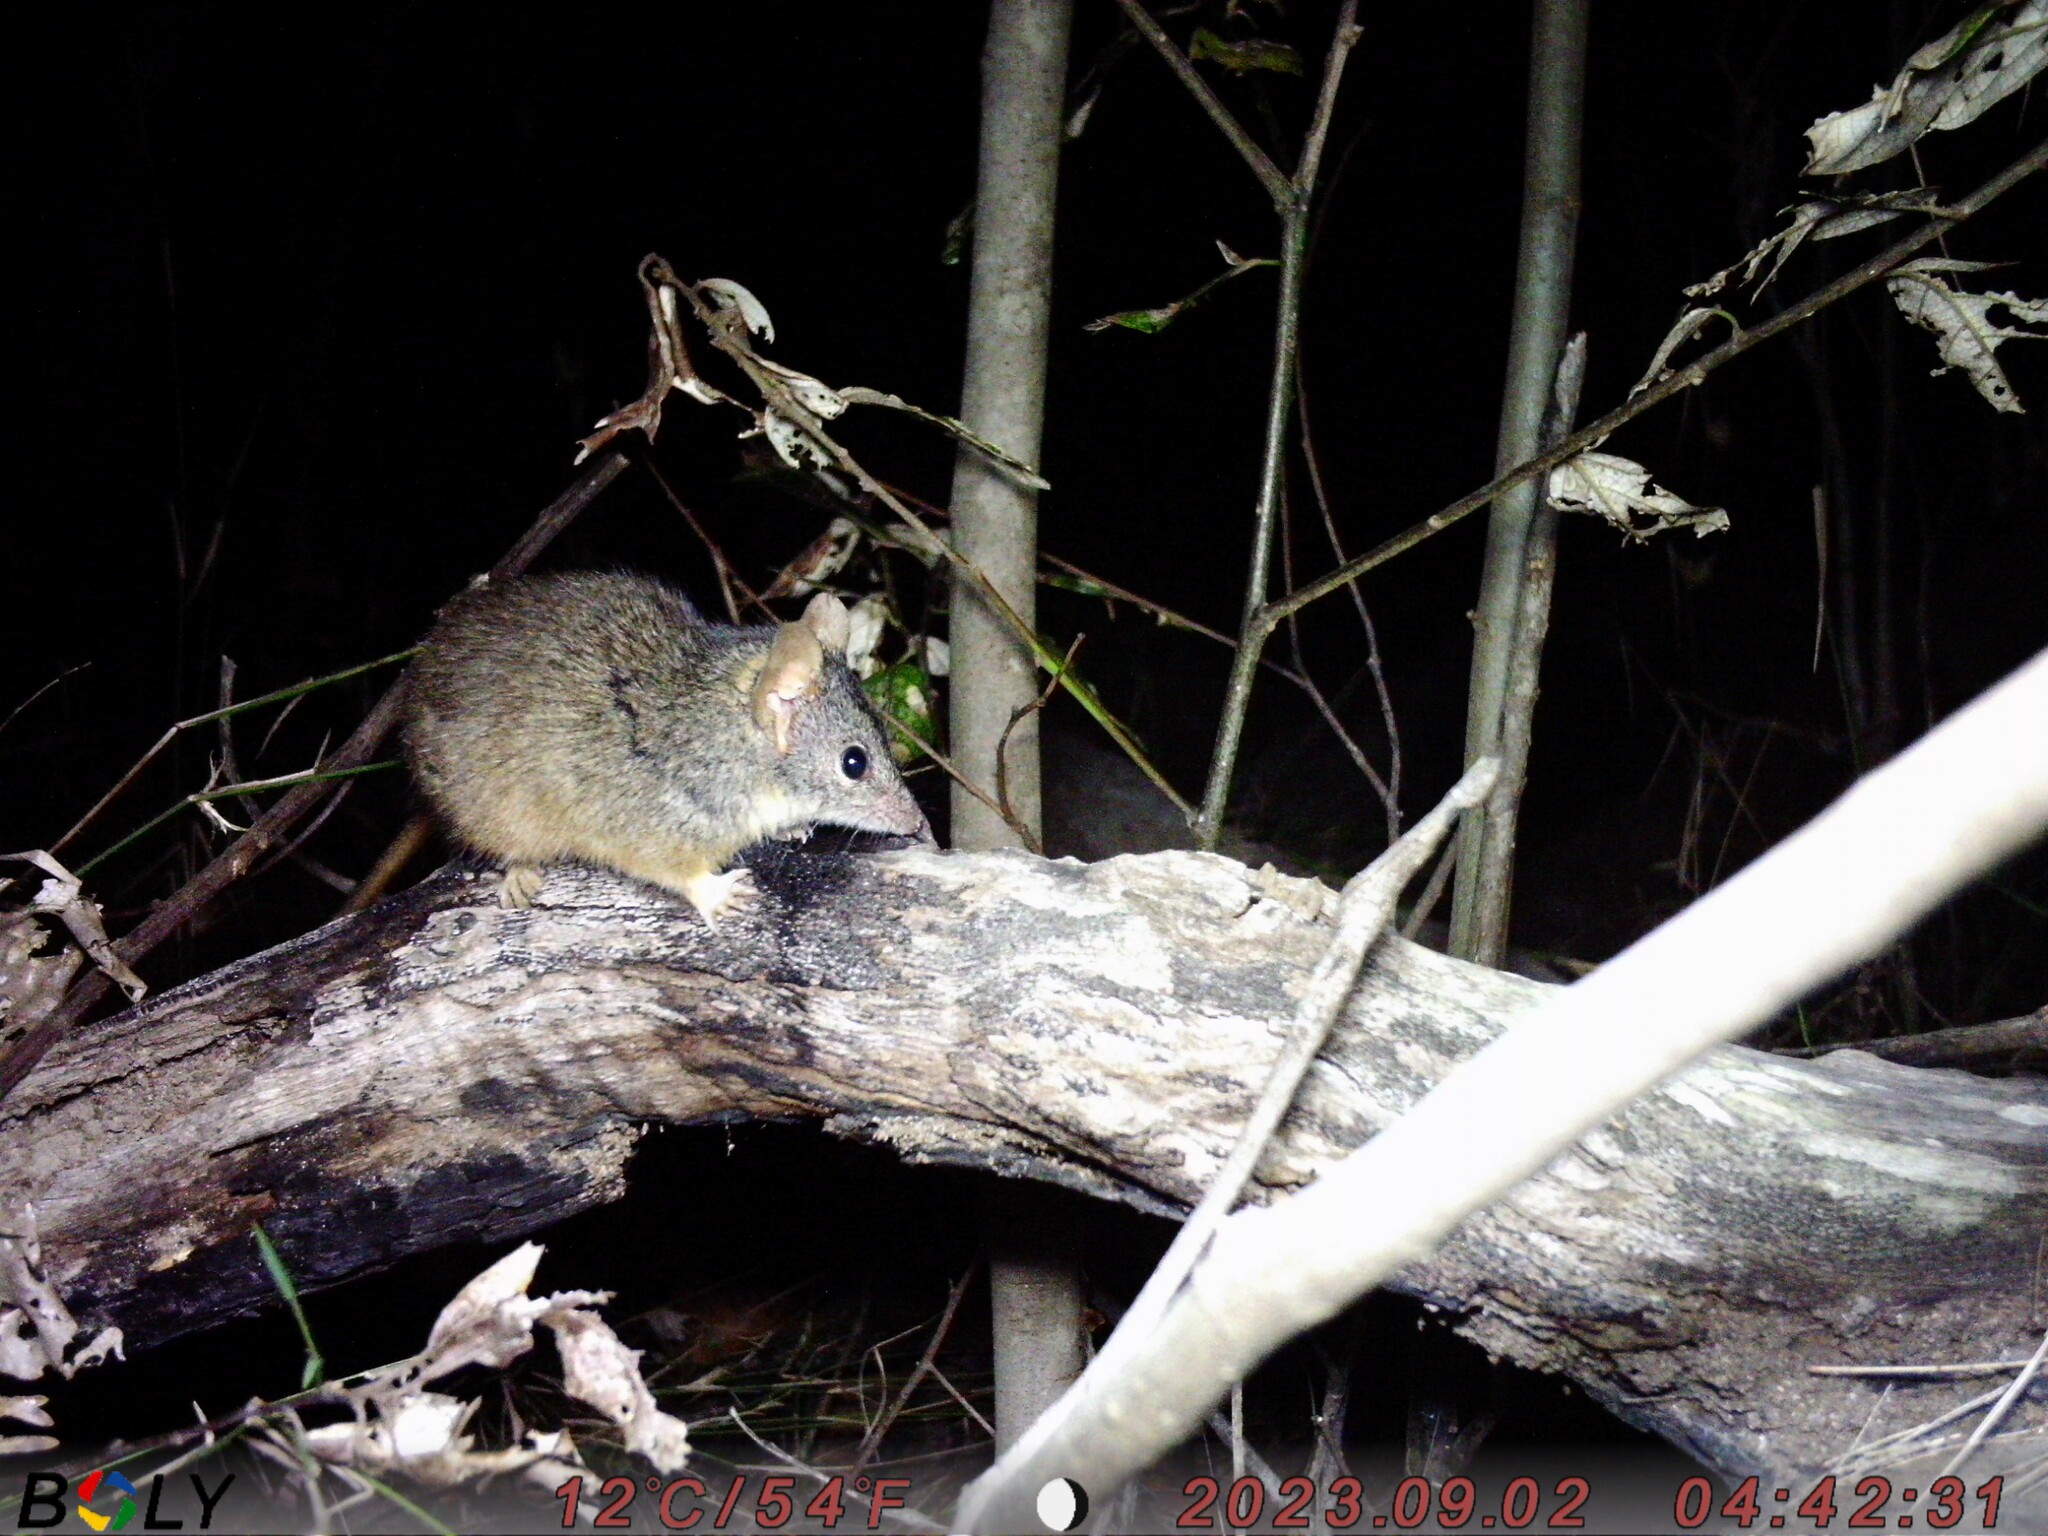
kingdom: Animalia
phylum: Chordata
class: Mammalia
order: Dasyuromorphia
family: Dasyuridae
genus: Antechinus
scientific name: Antechinus flavipes
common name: Yellow-footed antechinus
